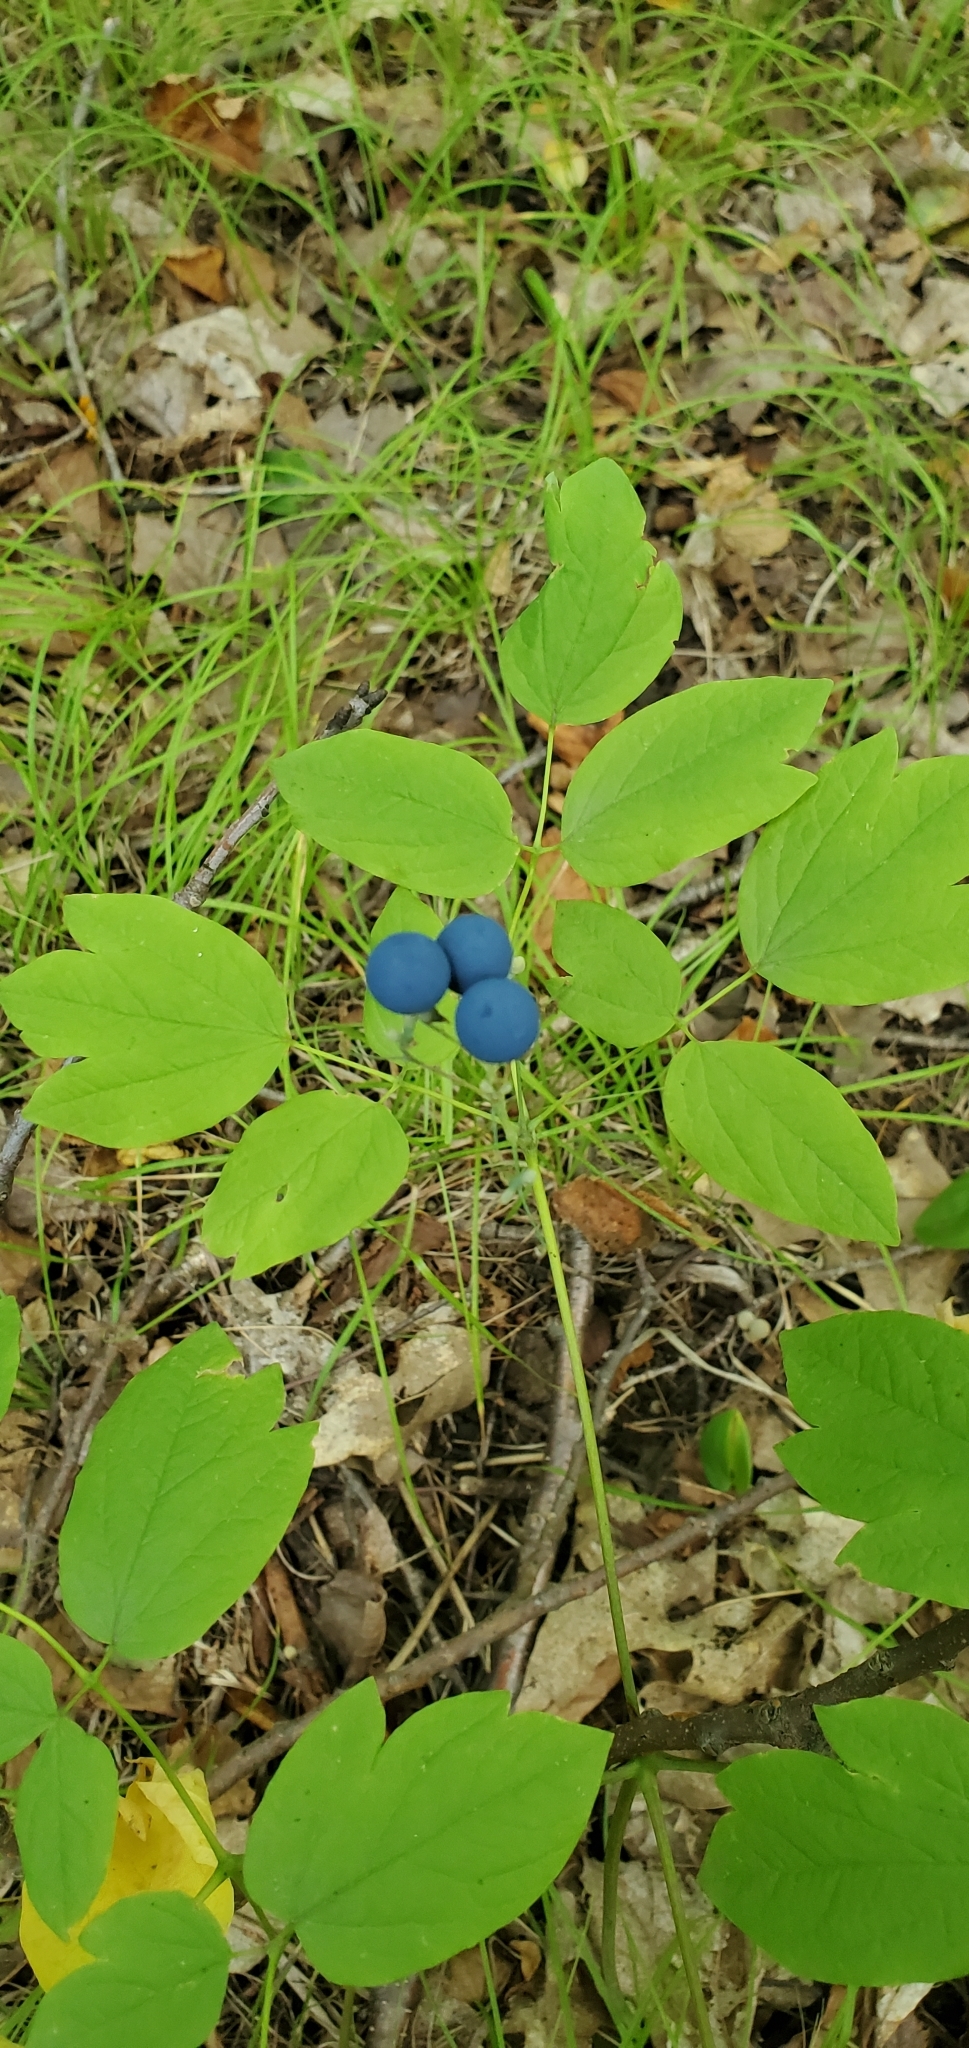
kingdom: Plantae
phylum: Tracheophyta
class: Magnoliopsida
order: Ranunculales
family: Berberidaceae
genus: Caulophyllum
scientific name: Caulophyllum thalictroides
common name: Blue cohosh
